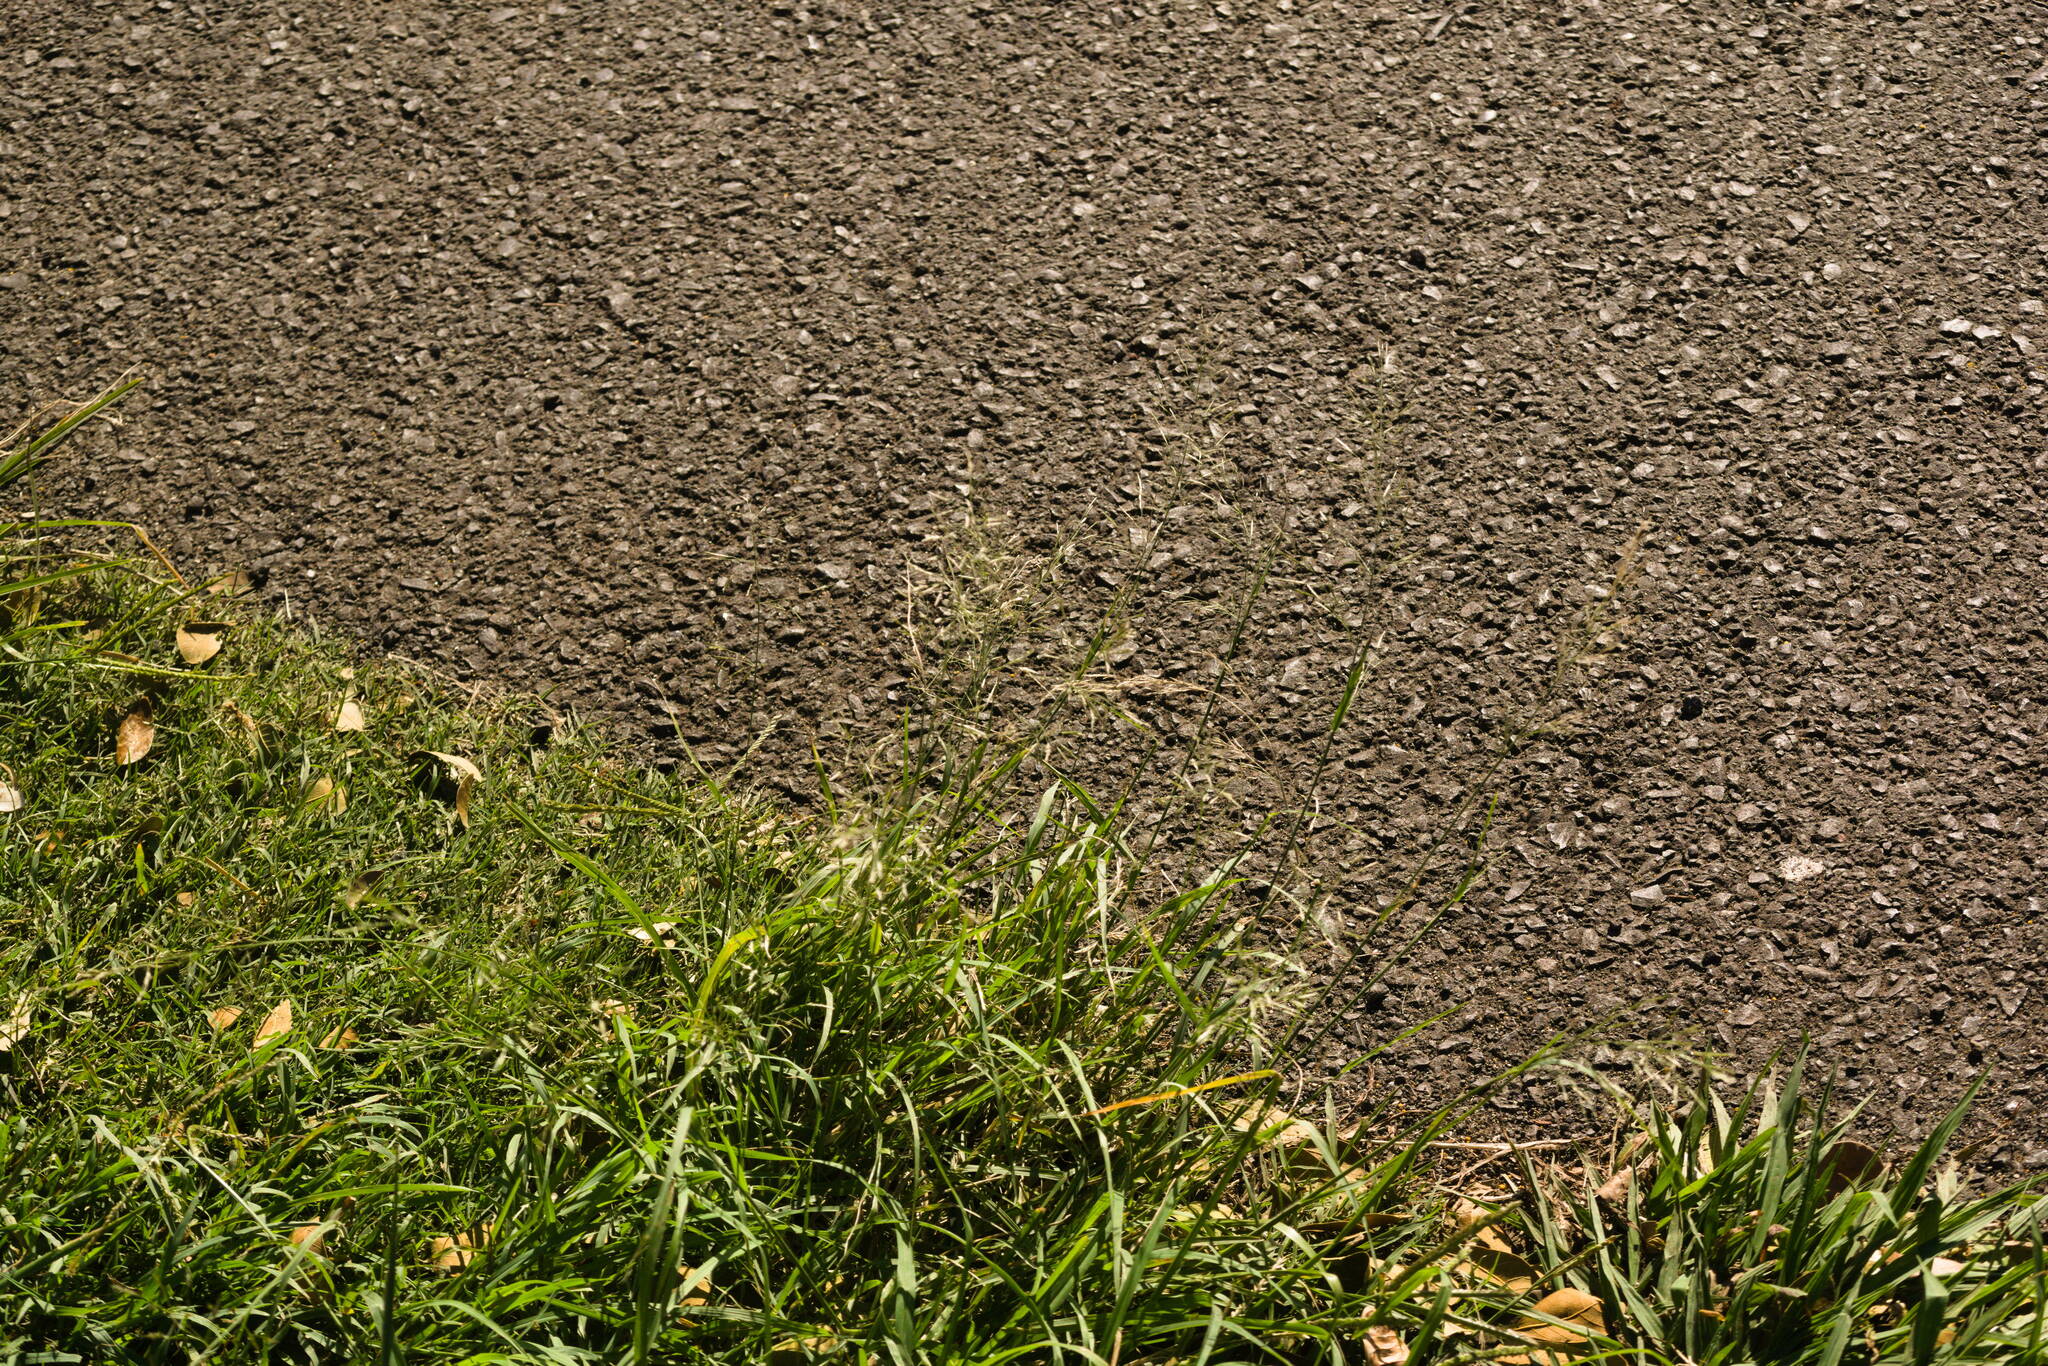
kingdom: Plantae
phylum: Tracheophyta
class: Liliopsida
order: Poales
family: Poaceae
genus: Eragrostis
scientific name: Eragrostis tenuifolia
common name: Elastic grass
